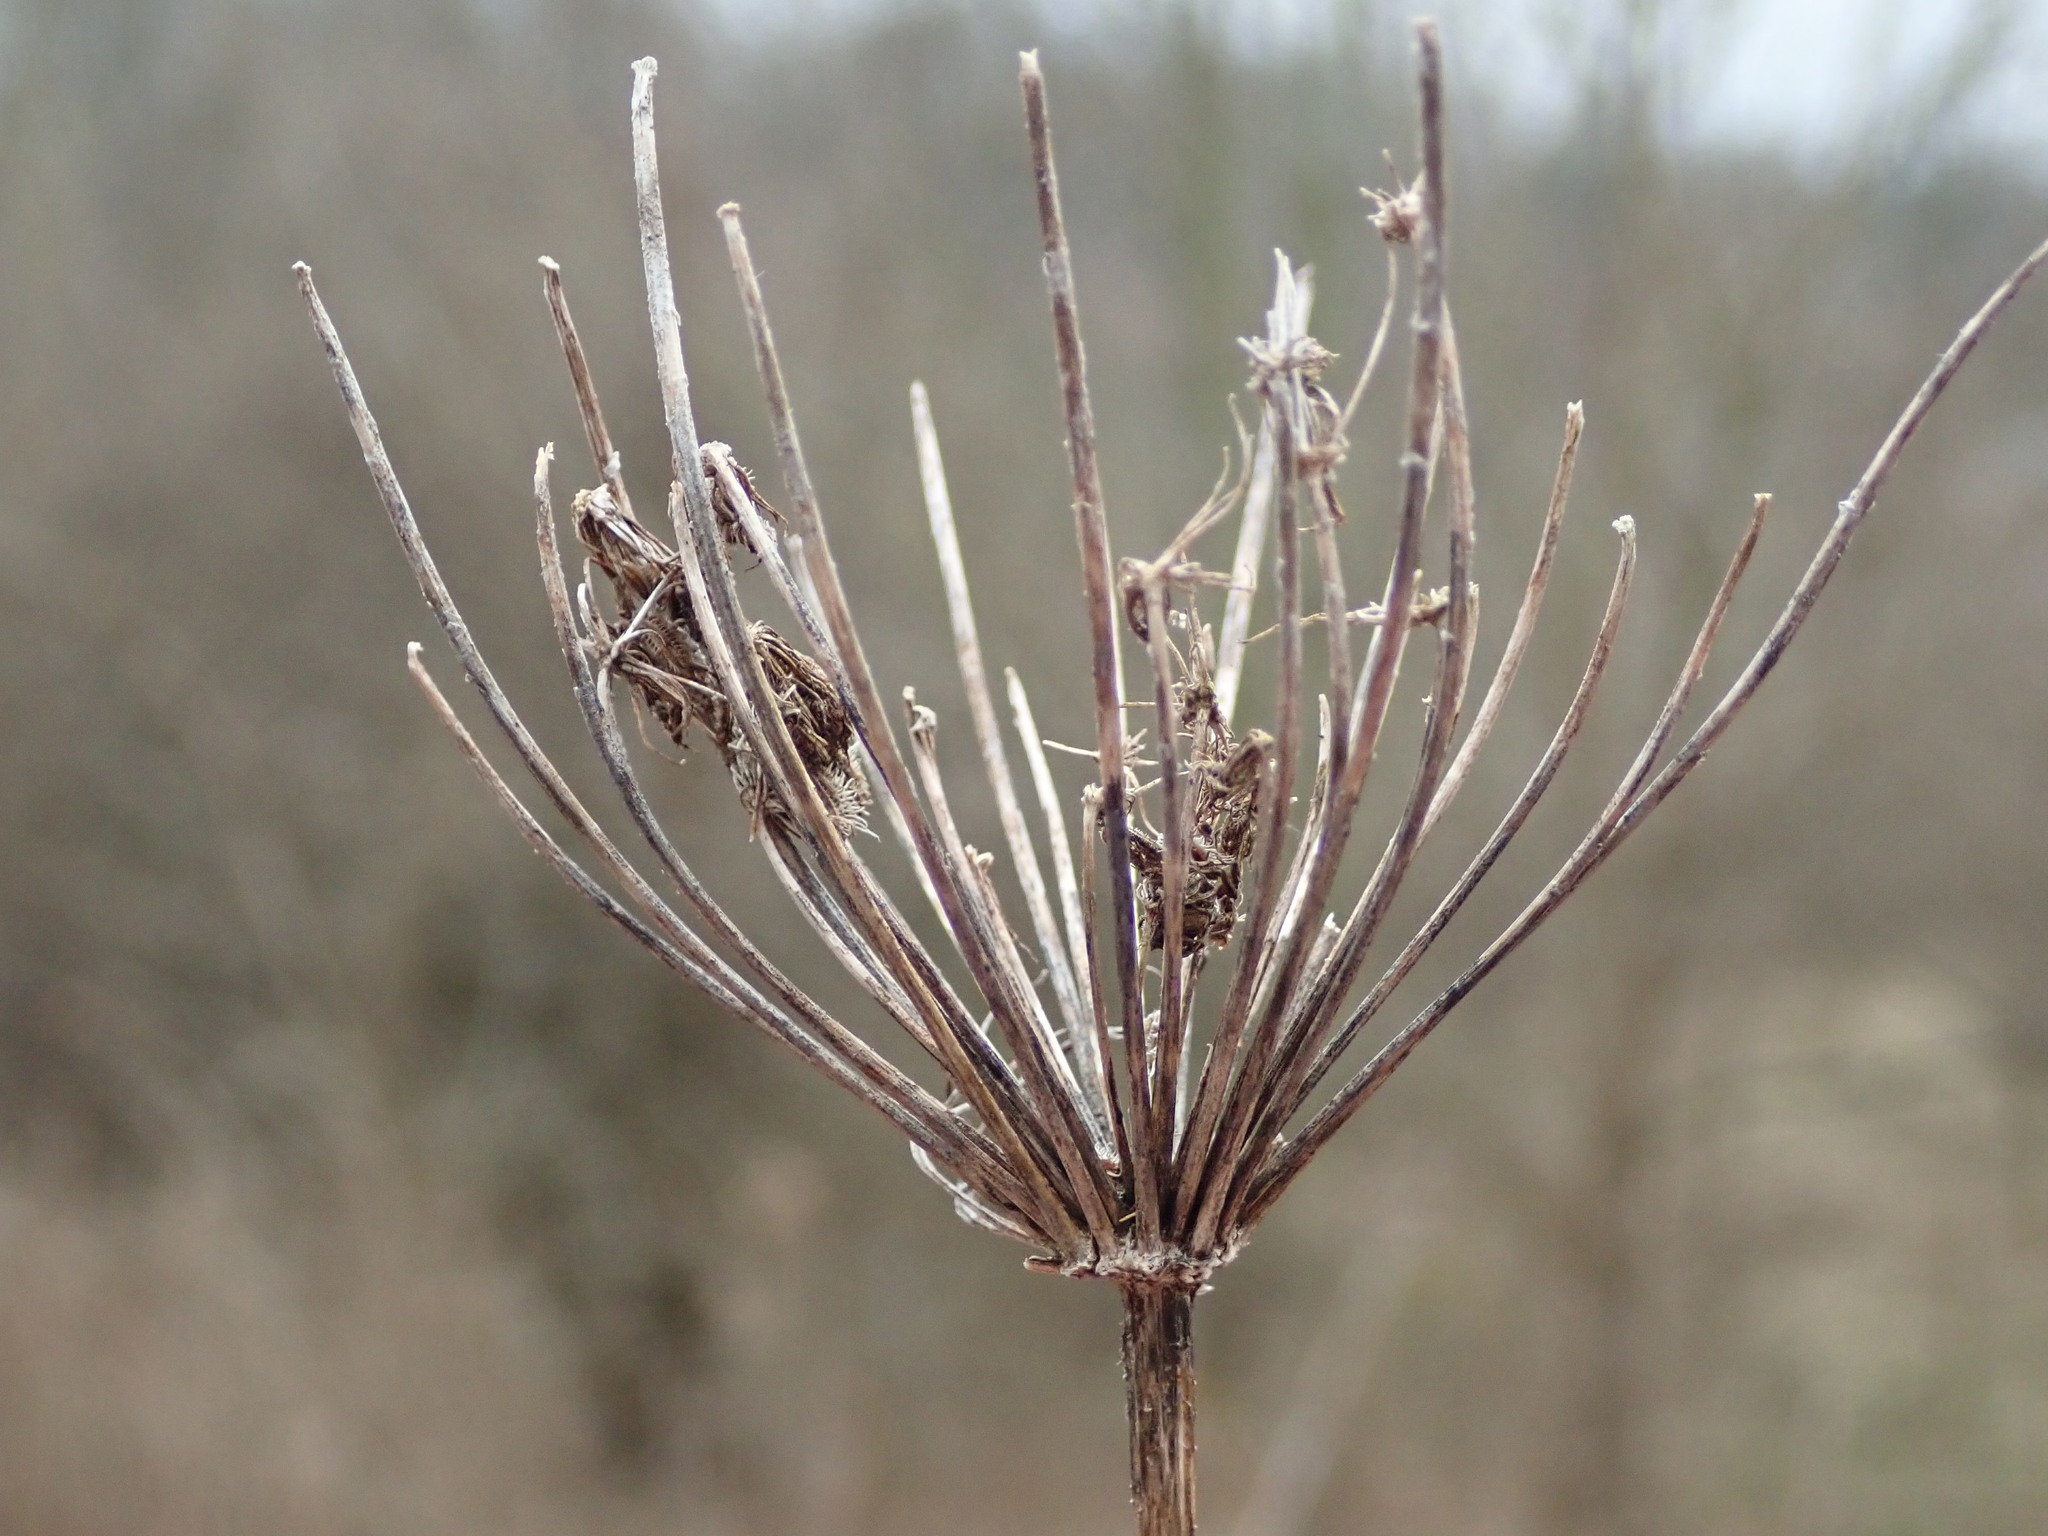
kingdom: Plantae
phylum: Tracheophyta
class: Magnoliopsida
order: Apiales
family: Apiaceae
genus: Daucus
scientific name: Daucus carota
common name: Wild carrot
